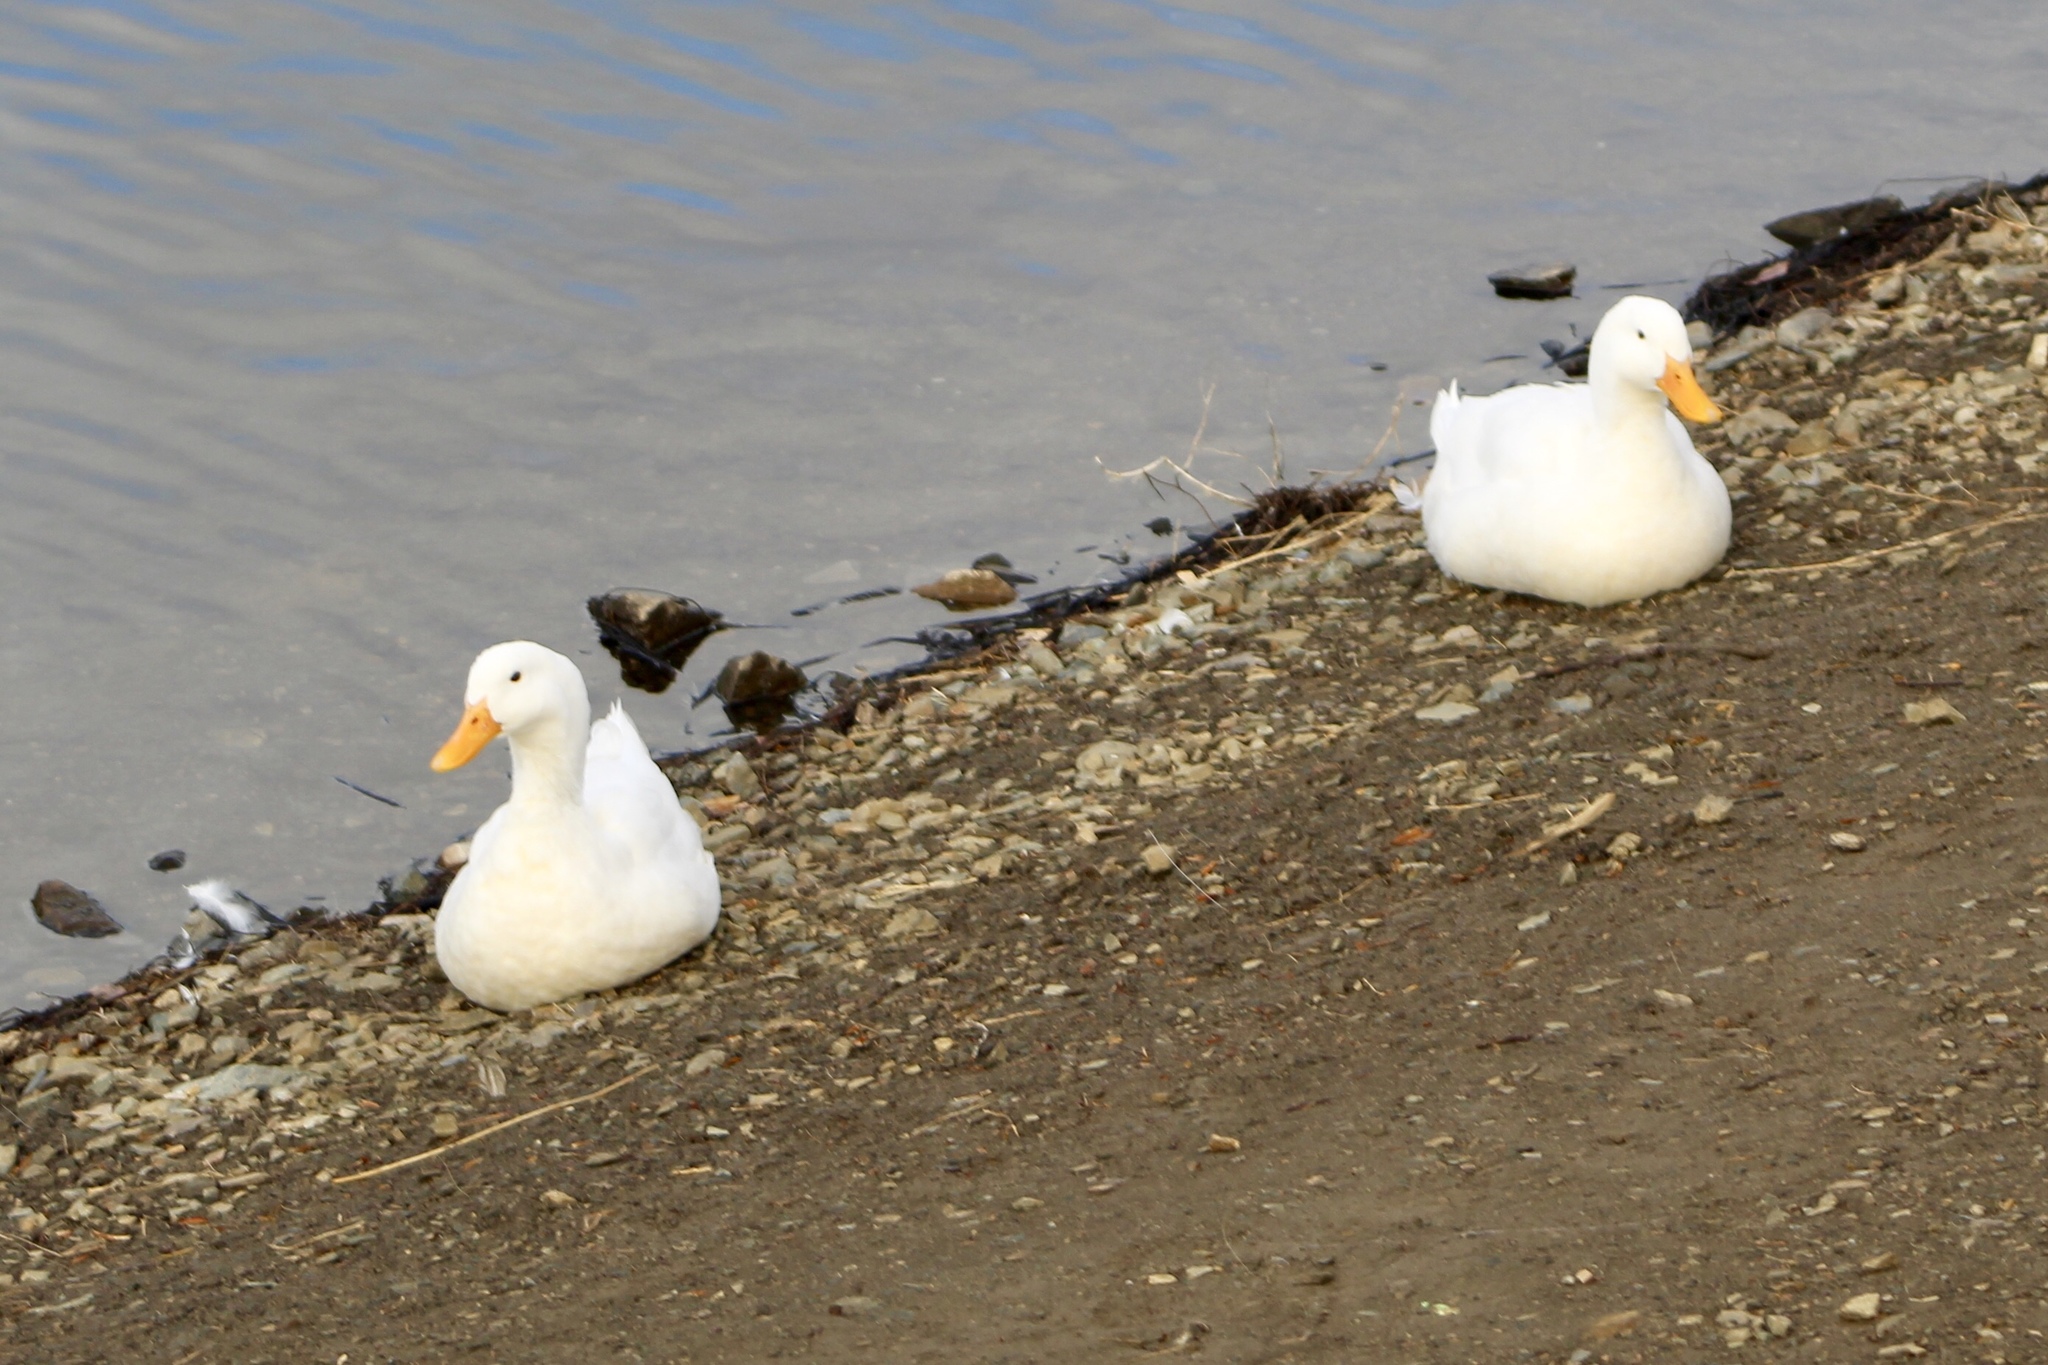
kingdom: Animalia
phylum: Chordata
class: Aves
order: Anseriformes
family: Anatidae
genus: Anas
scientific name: Anas platyrhynchos
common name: Mallard
